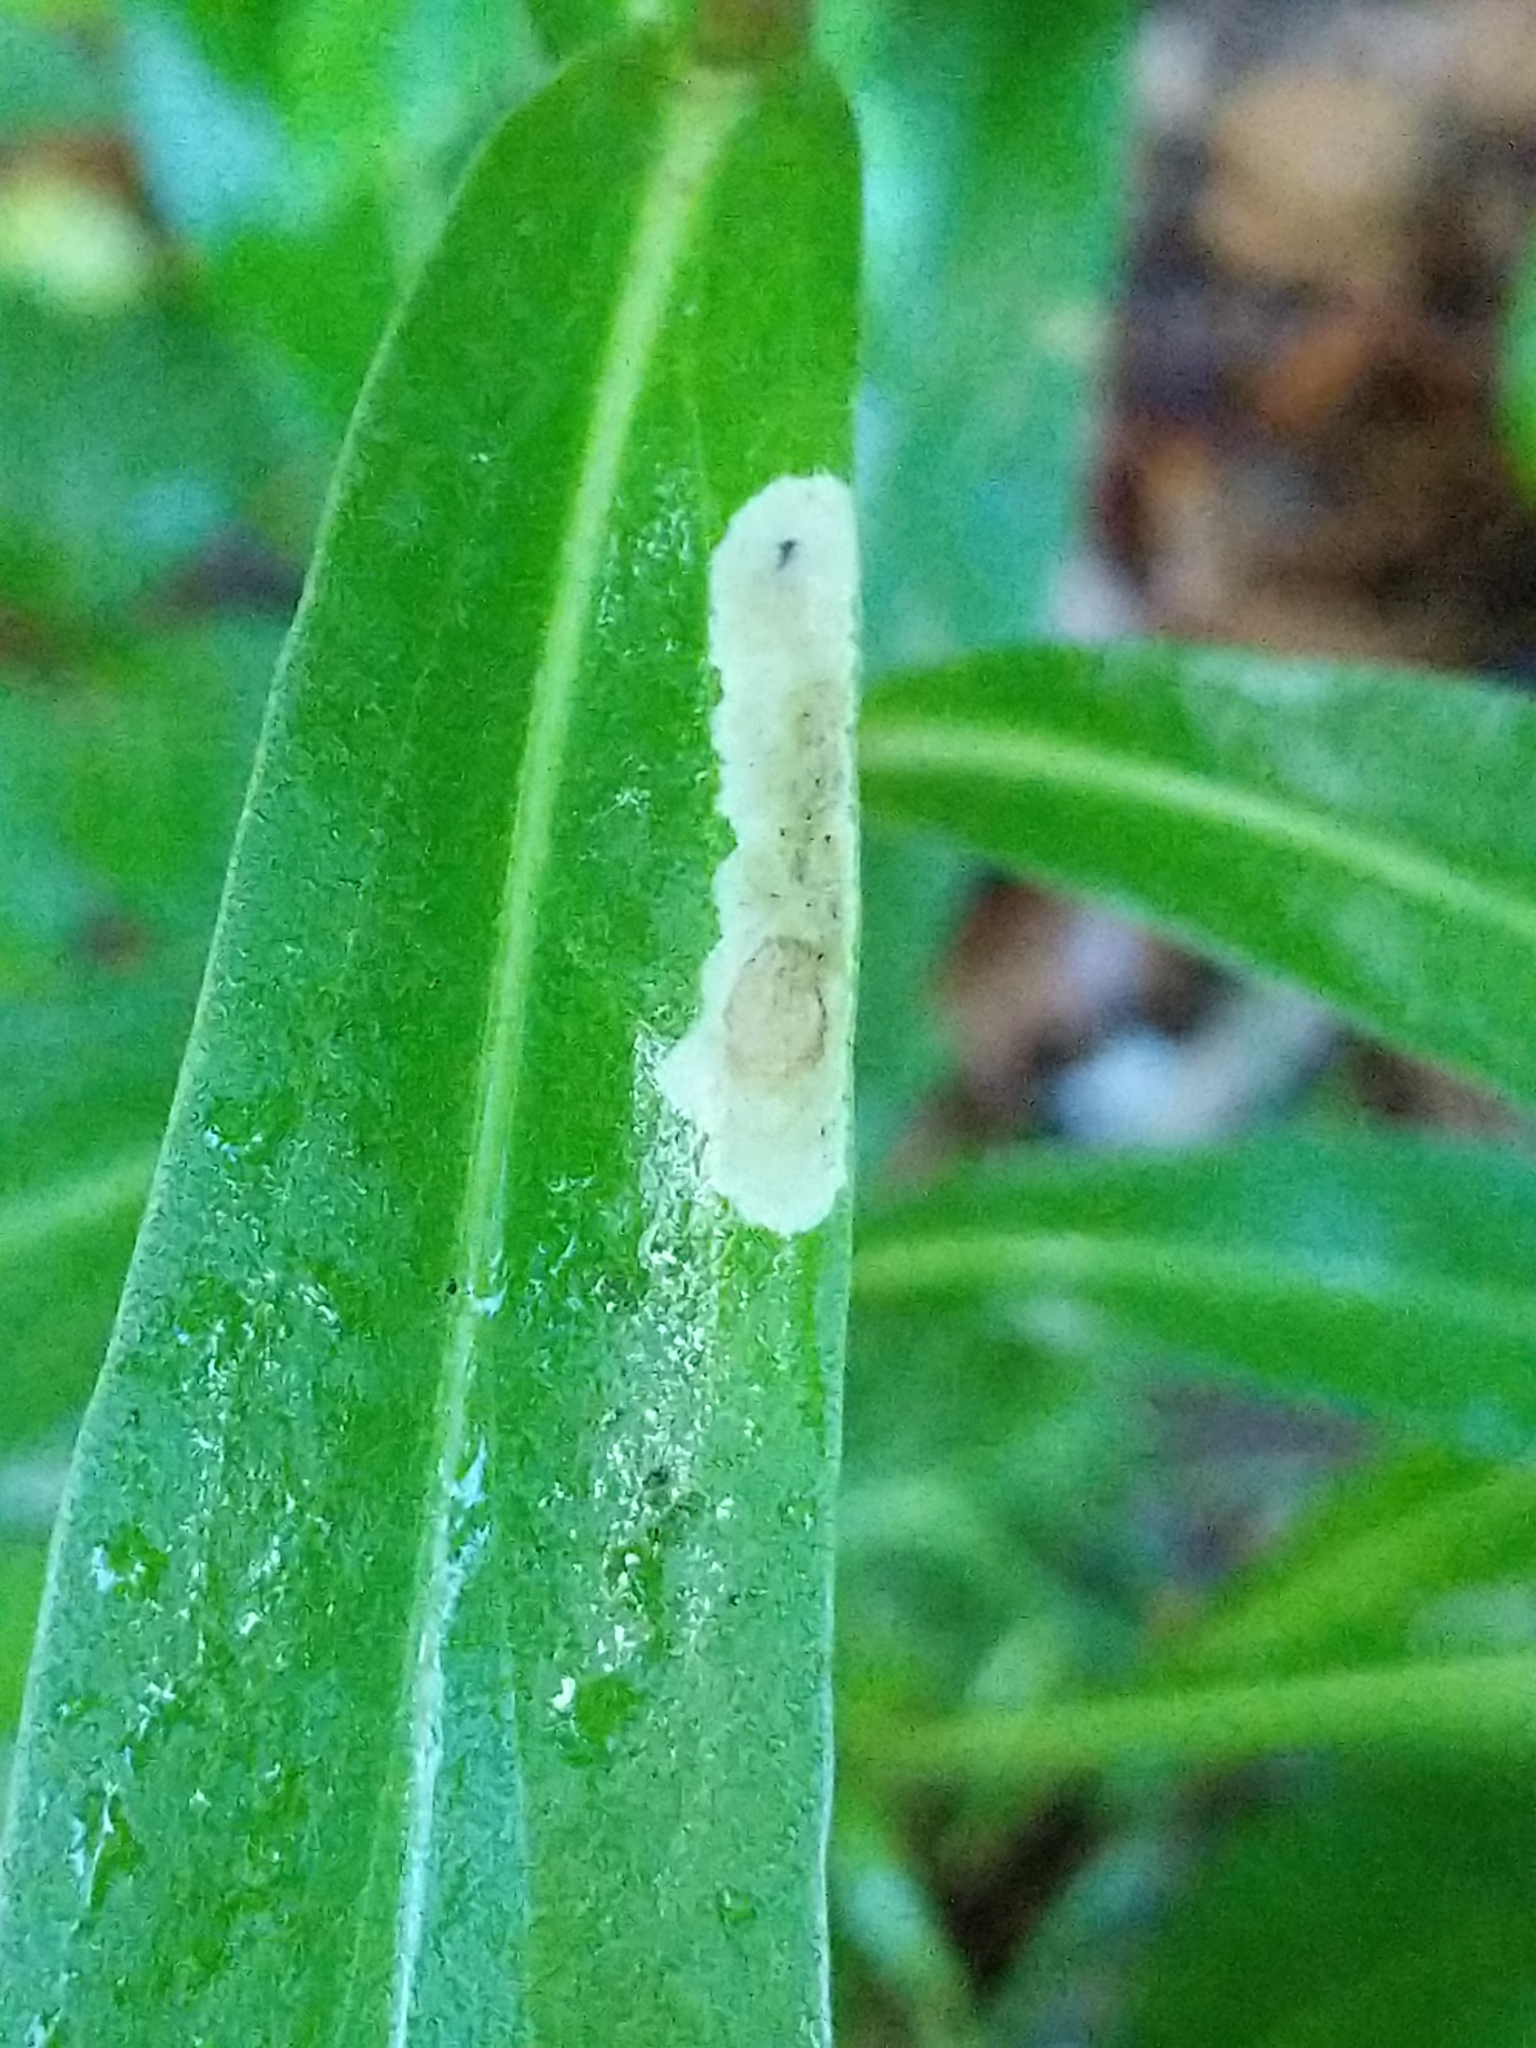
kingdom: Plantae
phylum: Tracheophyta
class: Magnoliopsida
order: Asterales
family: Asteraceae
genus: Solidago
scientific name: Solidago sempervirens
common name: Salt-marsh goldenrod
